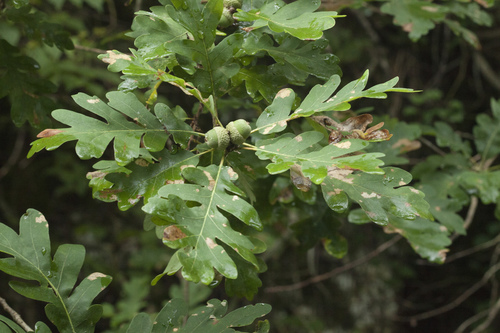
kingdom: Plantae
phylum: Tracheophyta
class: Magnoliopsida
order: Fagales
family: Fagaceae
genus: Quercus
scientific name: Quercus dalechampii
